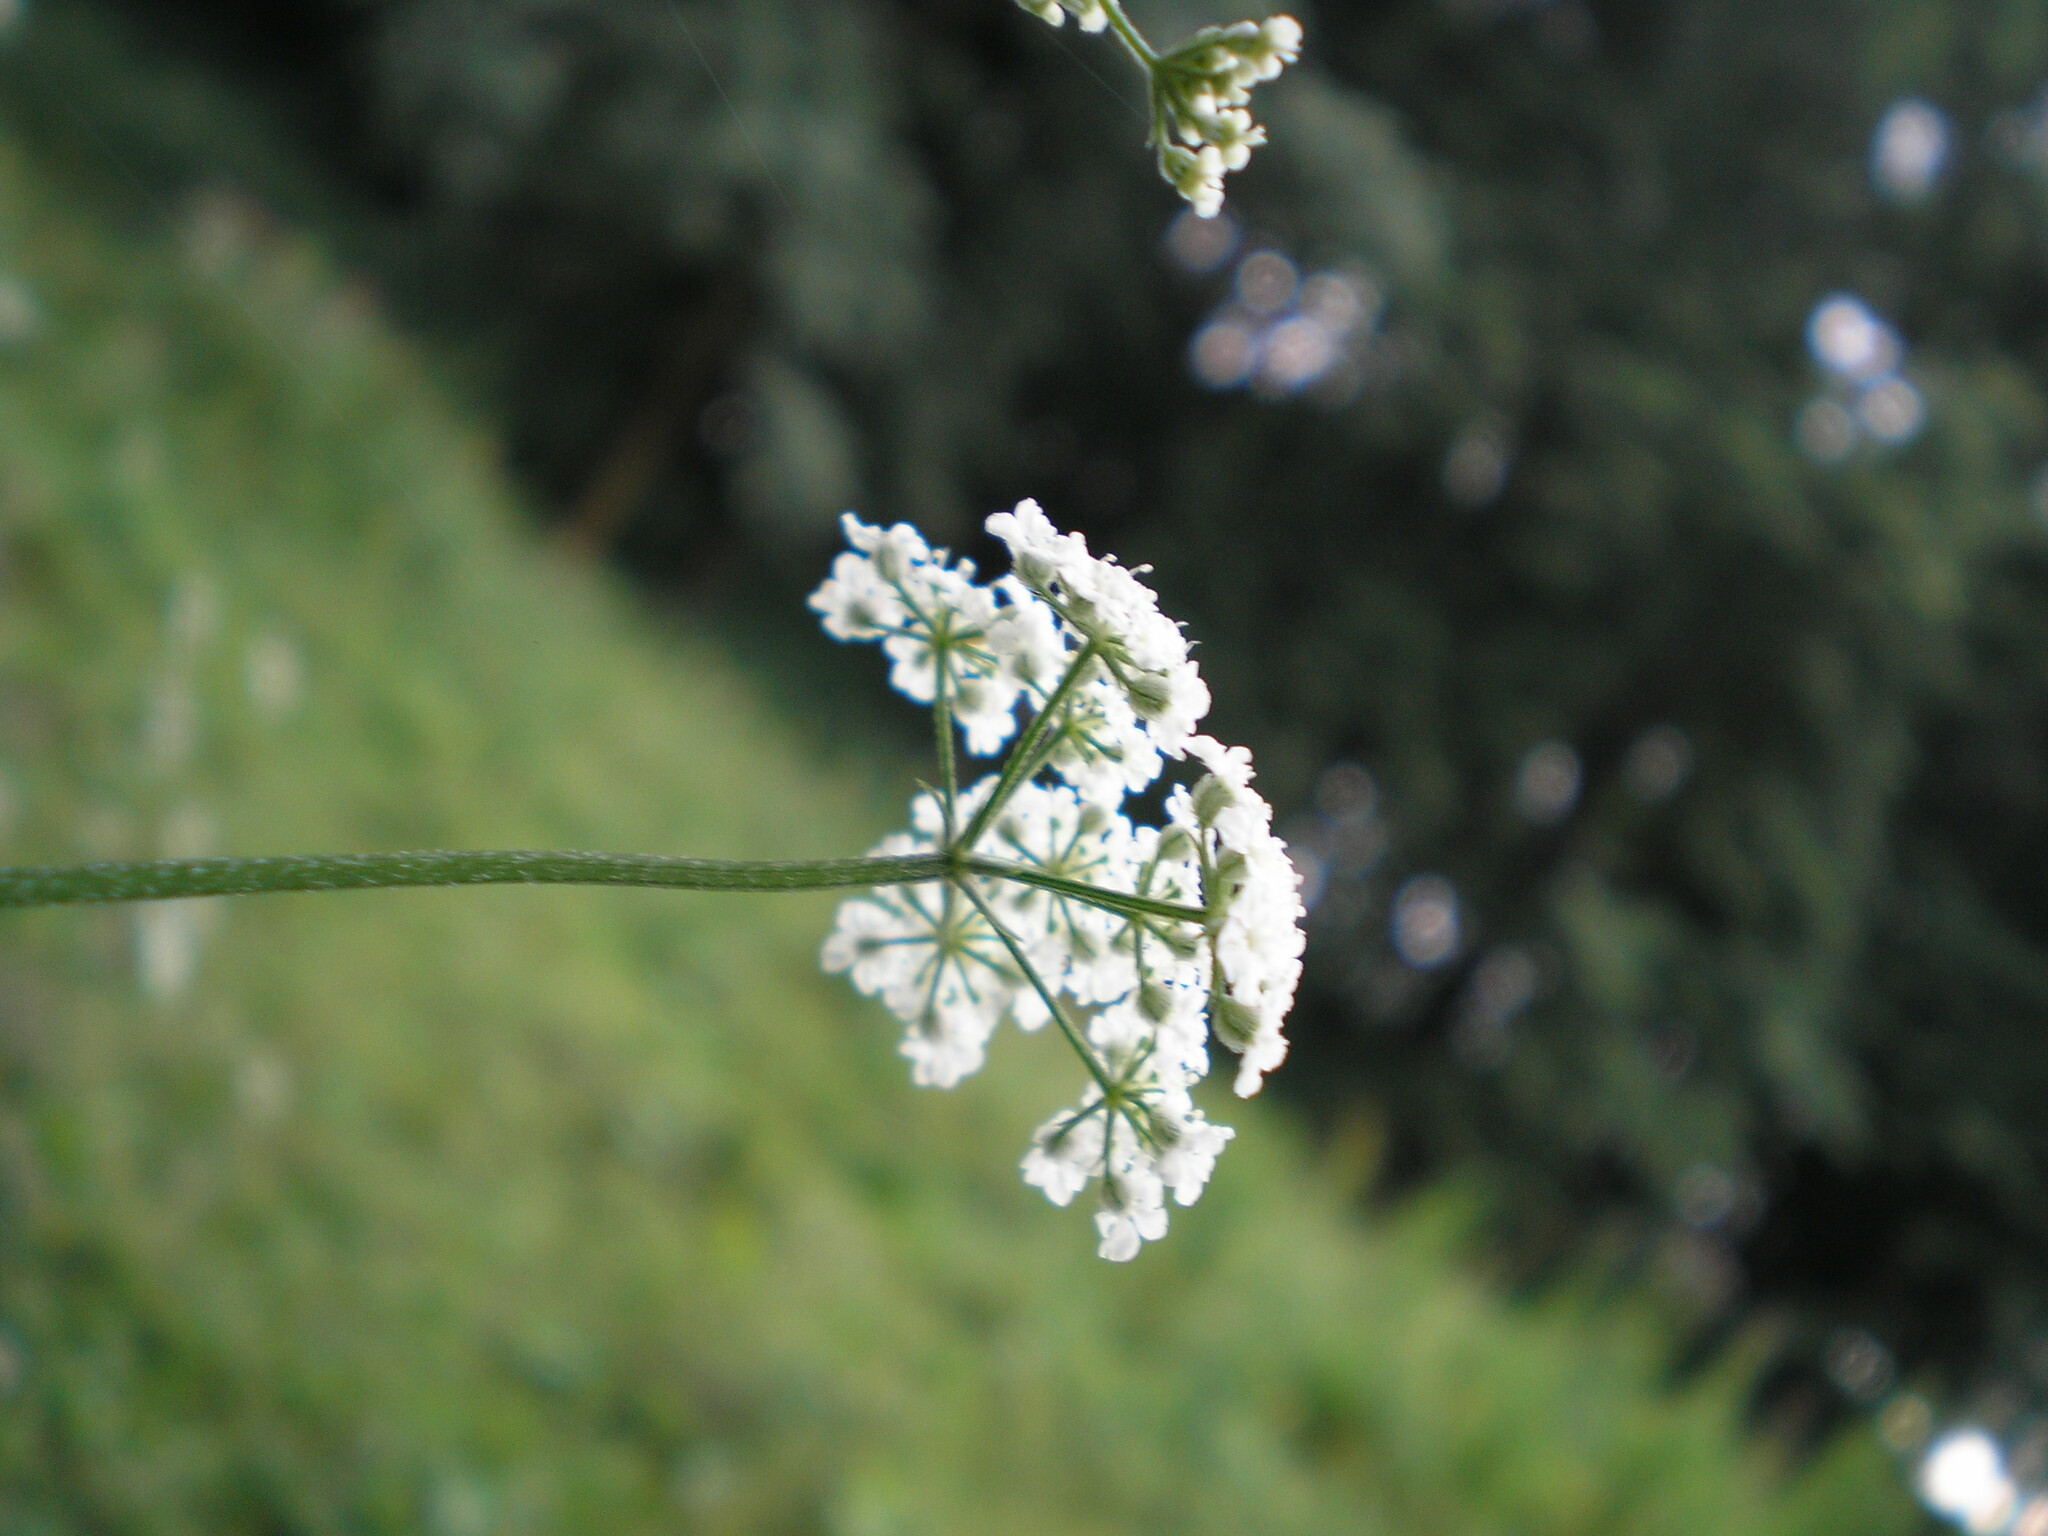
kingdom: Plantae
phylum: Tracheophyta
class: Magnoliopsida
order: Apiales
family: Apiaceae
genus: Torilis
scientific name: Torilis japonica
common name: Upright hedge-parsley
